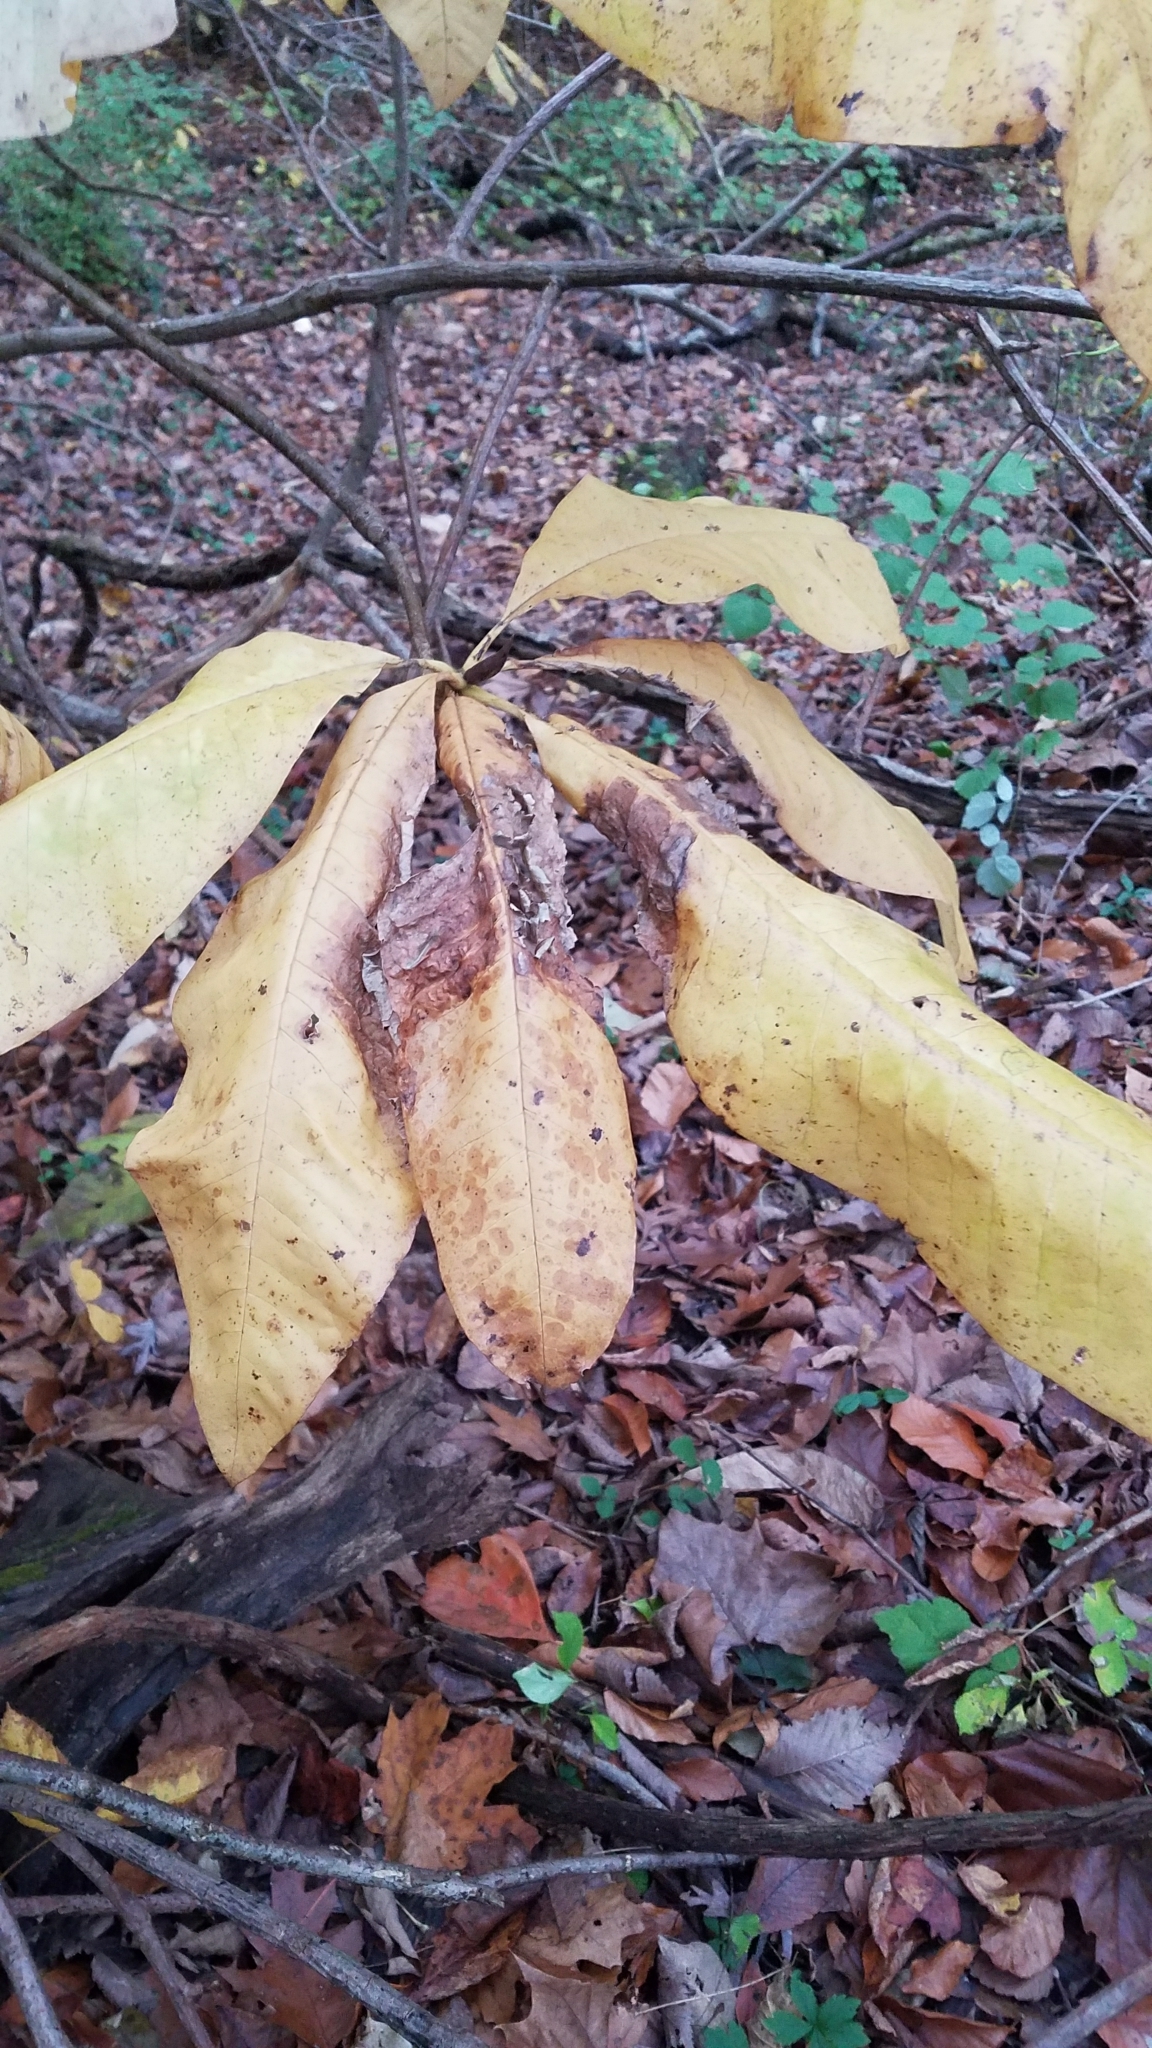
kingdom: Plantae
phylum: Tracheophyta
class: Magnoliopsida
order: Magnoliales
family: Magnoliaceae
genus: Magnolia
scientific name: Magnolia tripetala
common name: Umbrella magnolia
